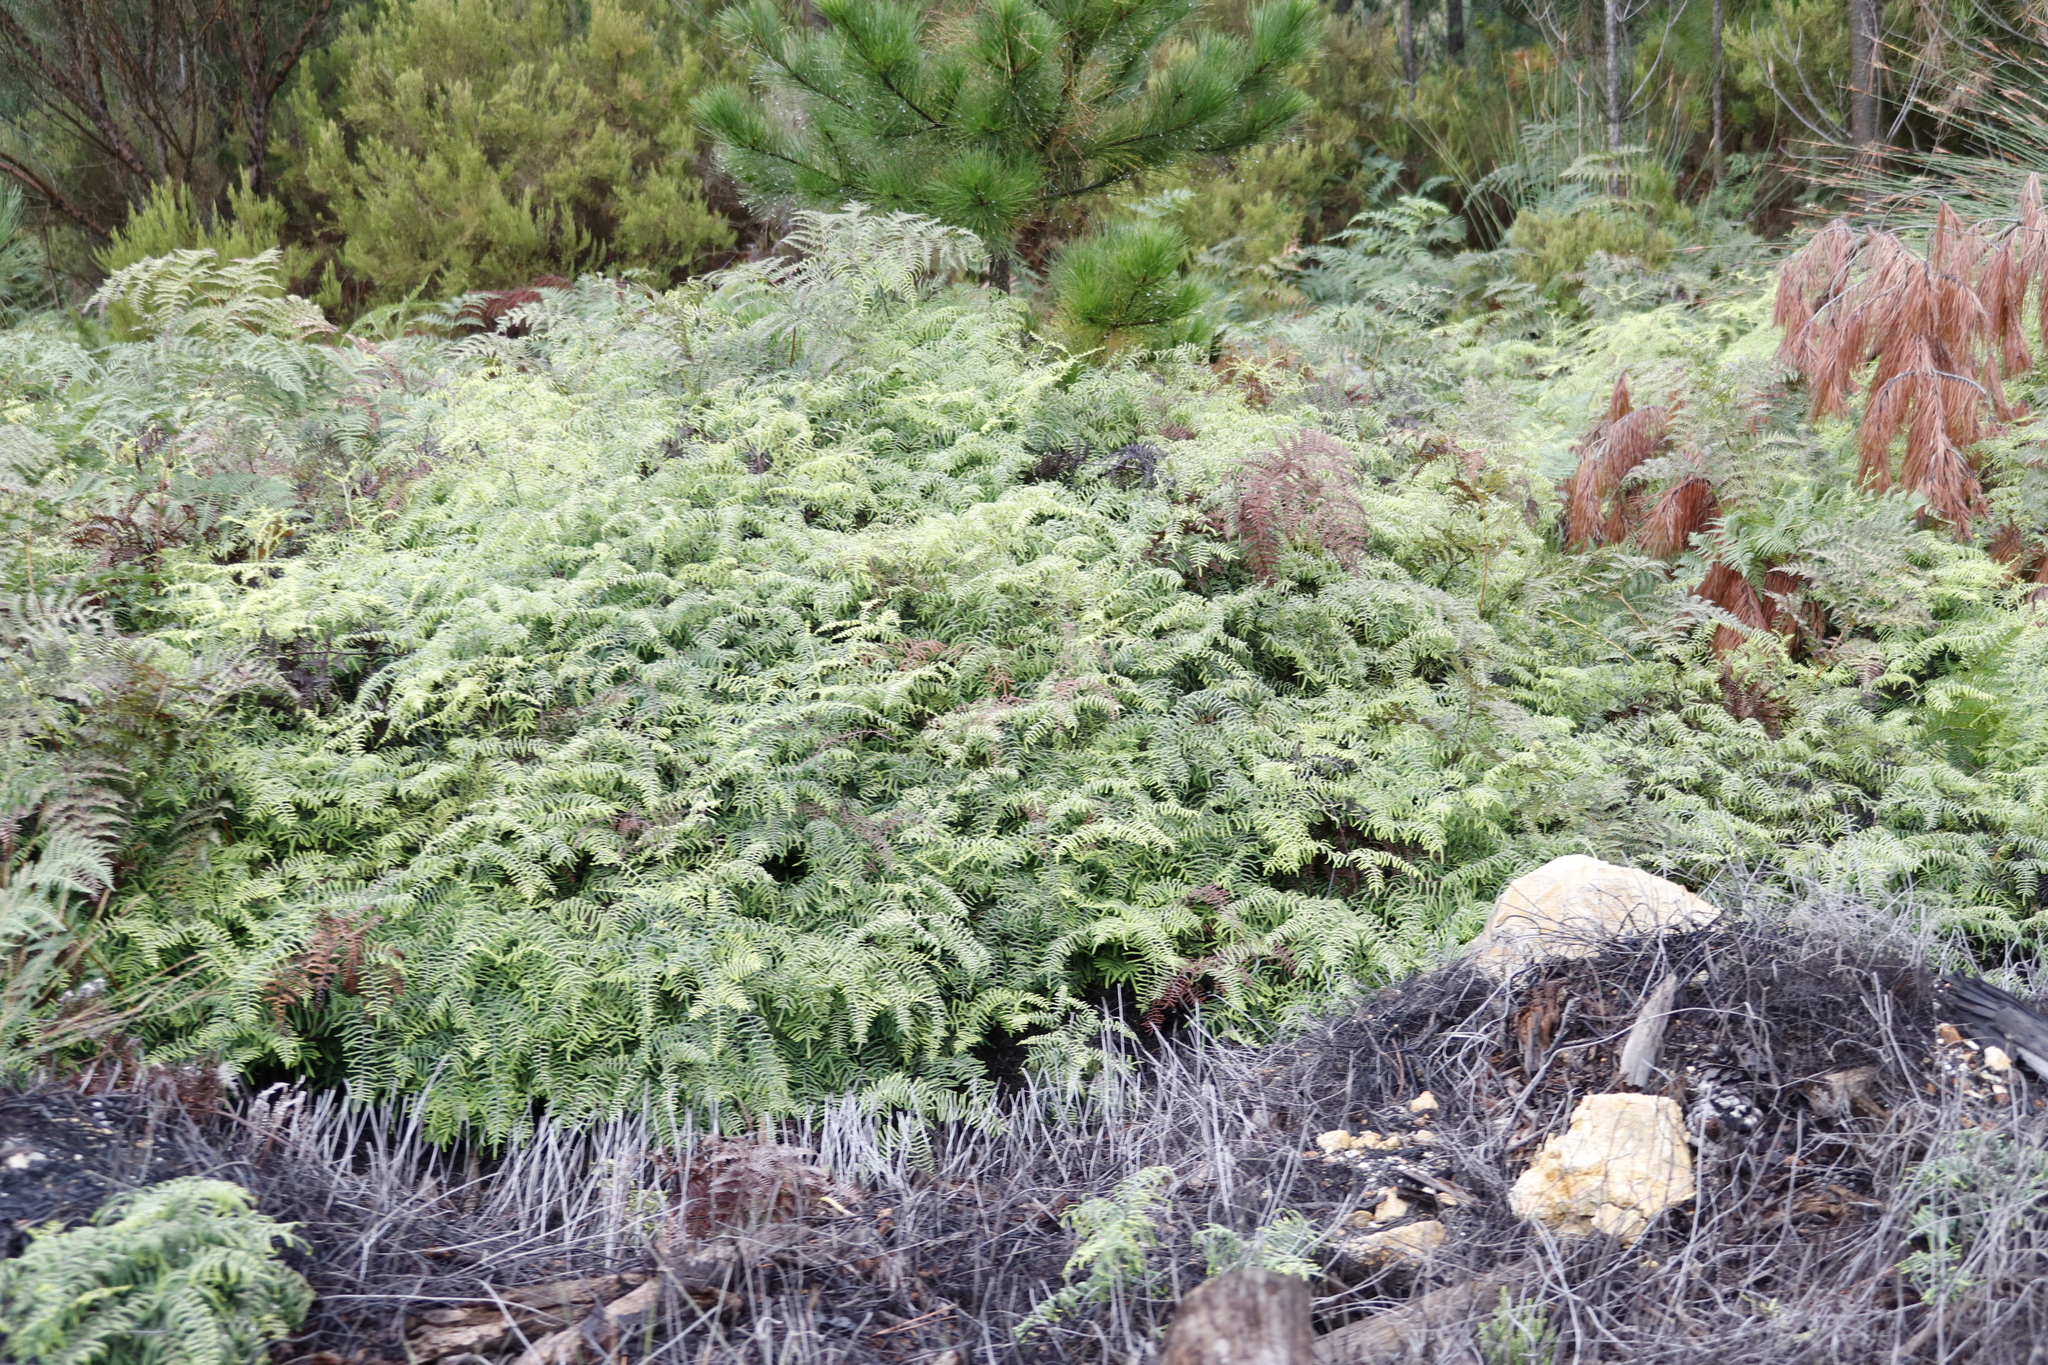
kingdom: Plantae
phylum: Tracheophyta
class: Polypodiopsida
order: Gleicheniales
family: Gleicheniaceae
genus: Gleichenia
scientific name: Gleichenia polypodioides
